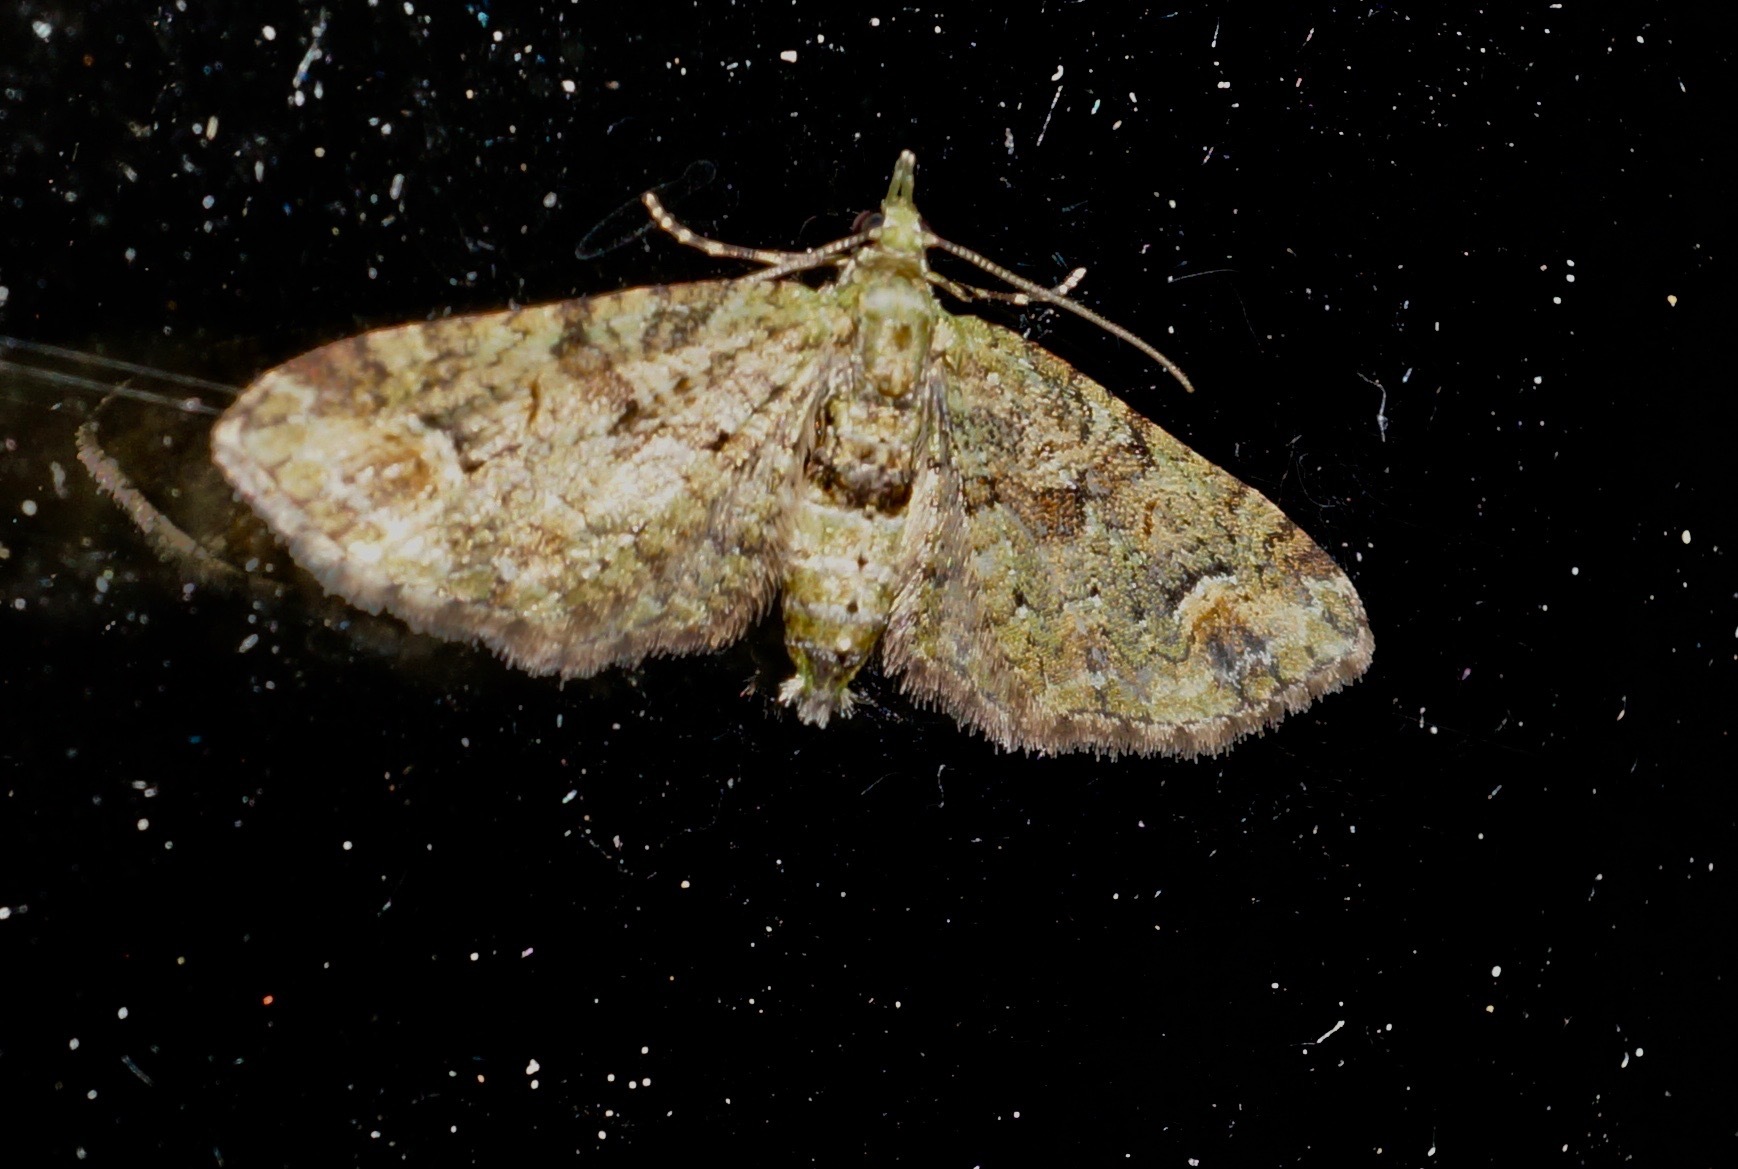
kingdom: Animalia
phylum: Arthropoda
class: Insecta
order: Lepidoptera
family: Geometridae
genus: Idaea
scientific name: Idaea mutanda
